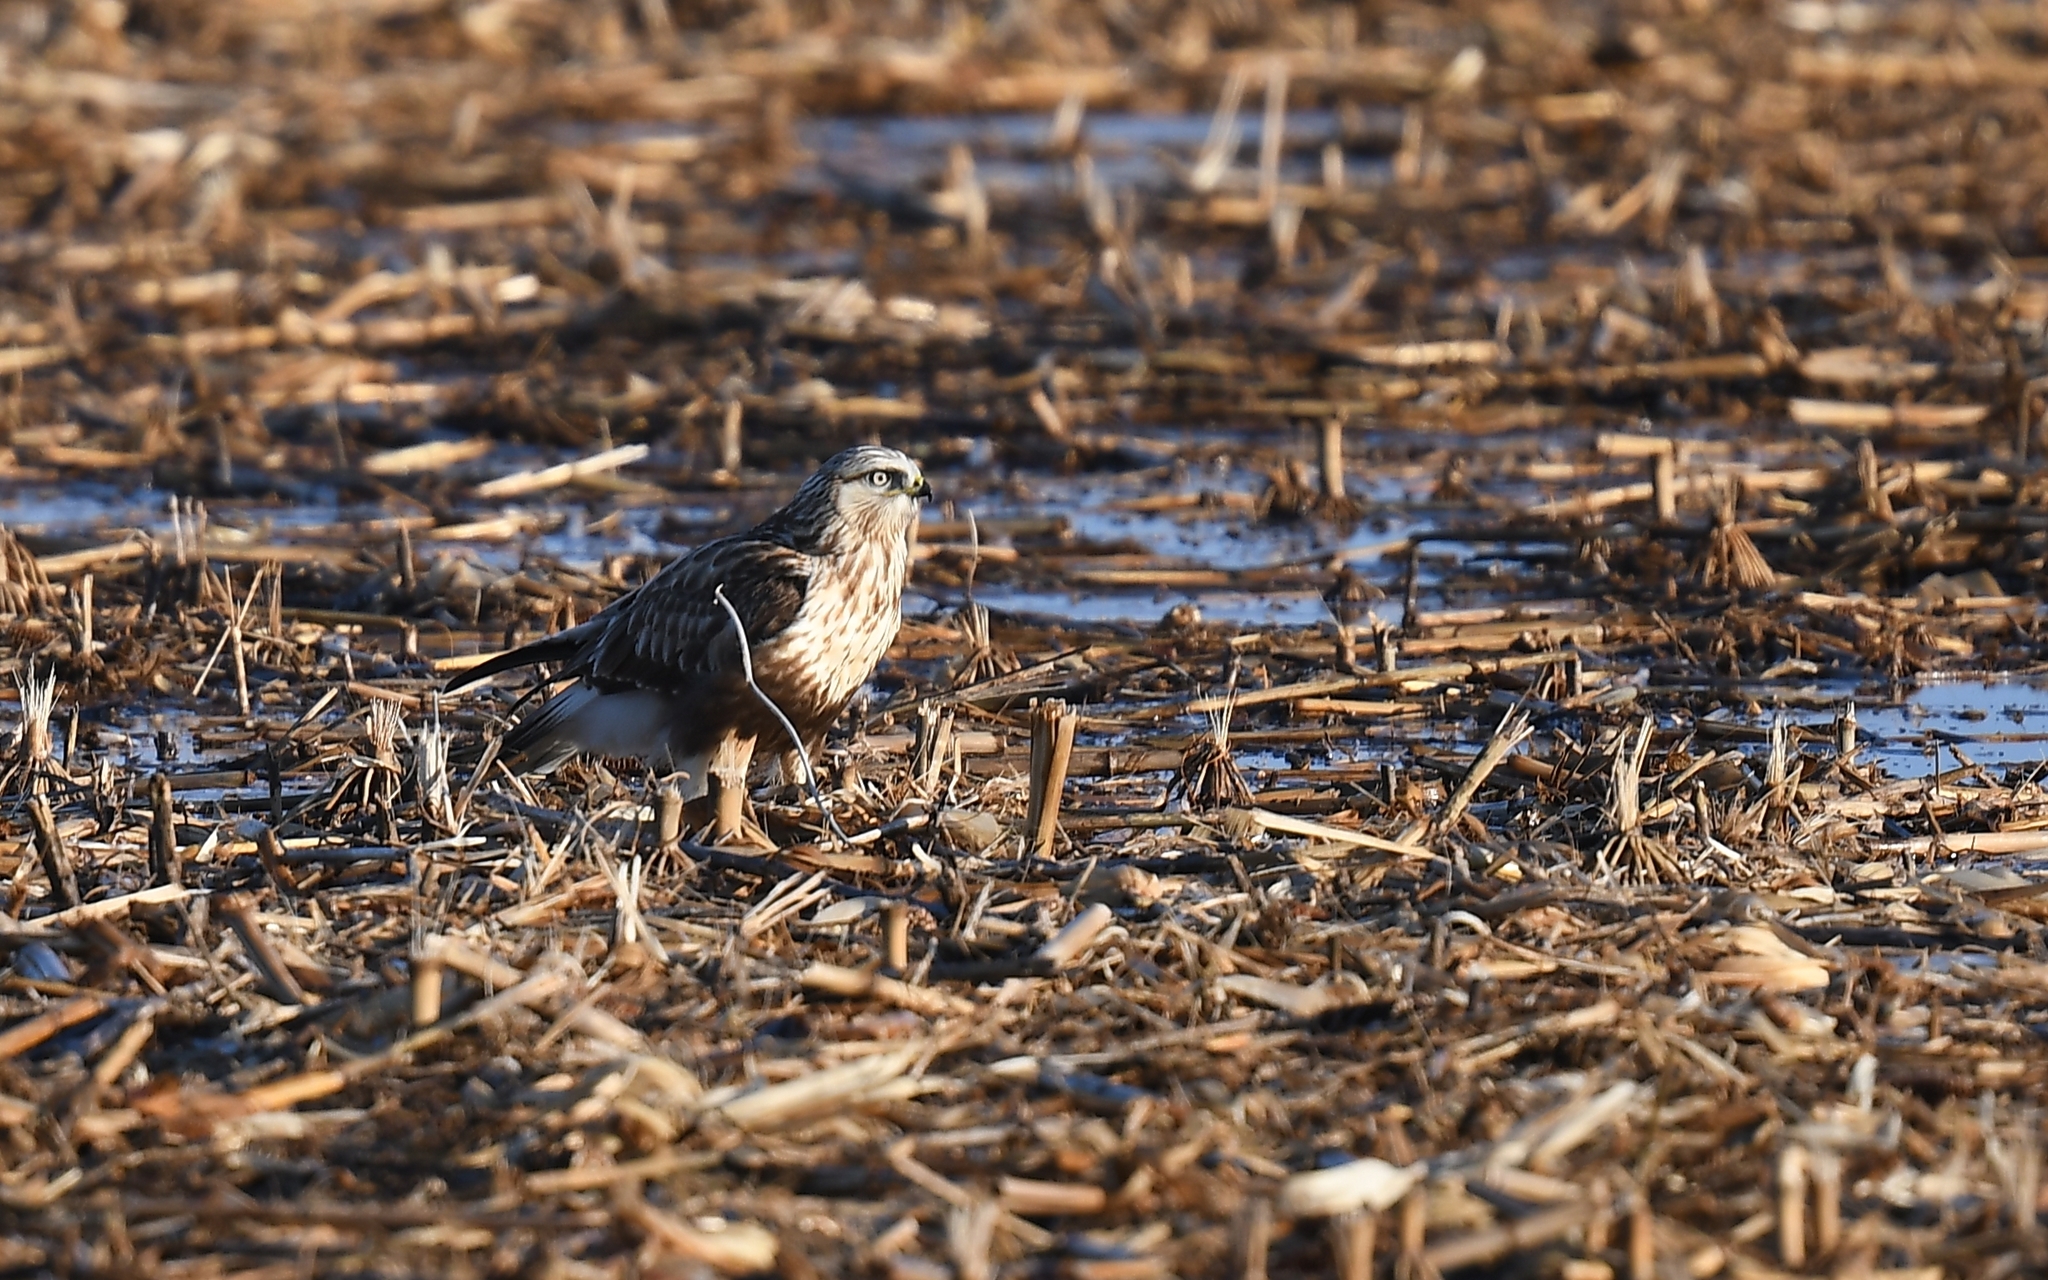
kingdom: Animalia
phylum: Chordata
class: Aves
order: Accipitriformes
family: Accipitridae
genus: Buteo
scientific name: Buteo lagopus
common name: Rough-legged buzzard
